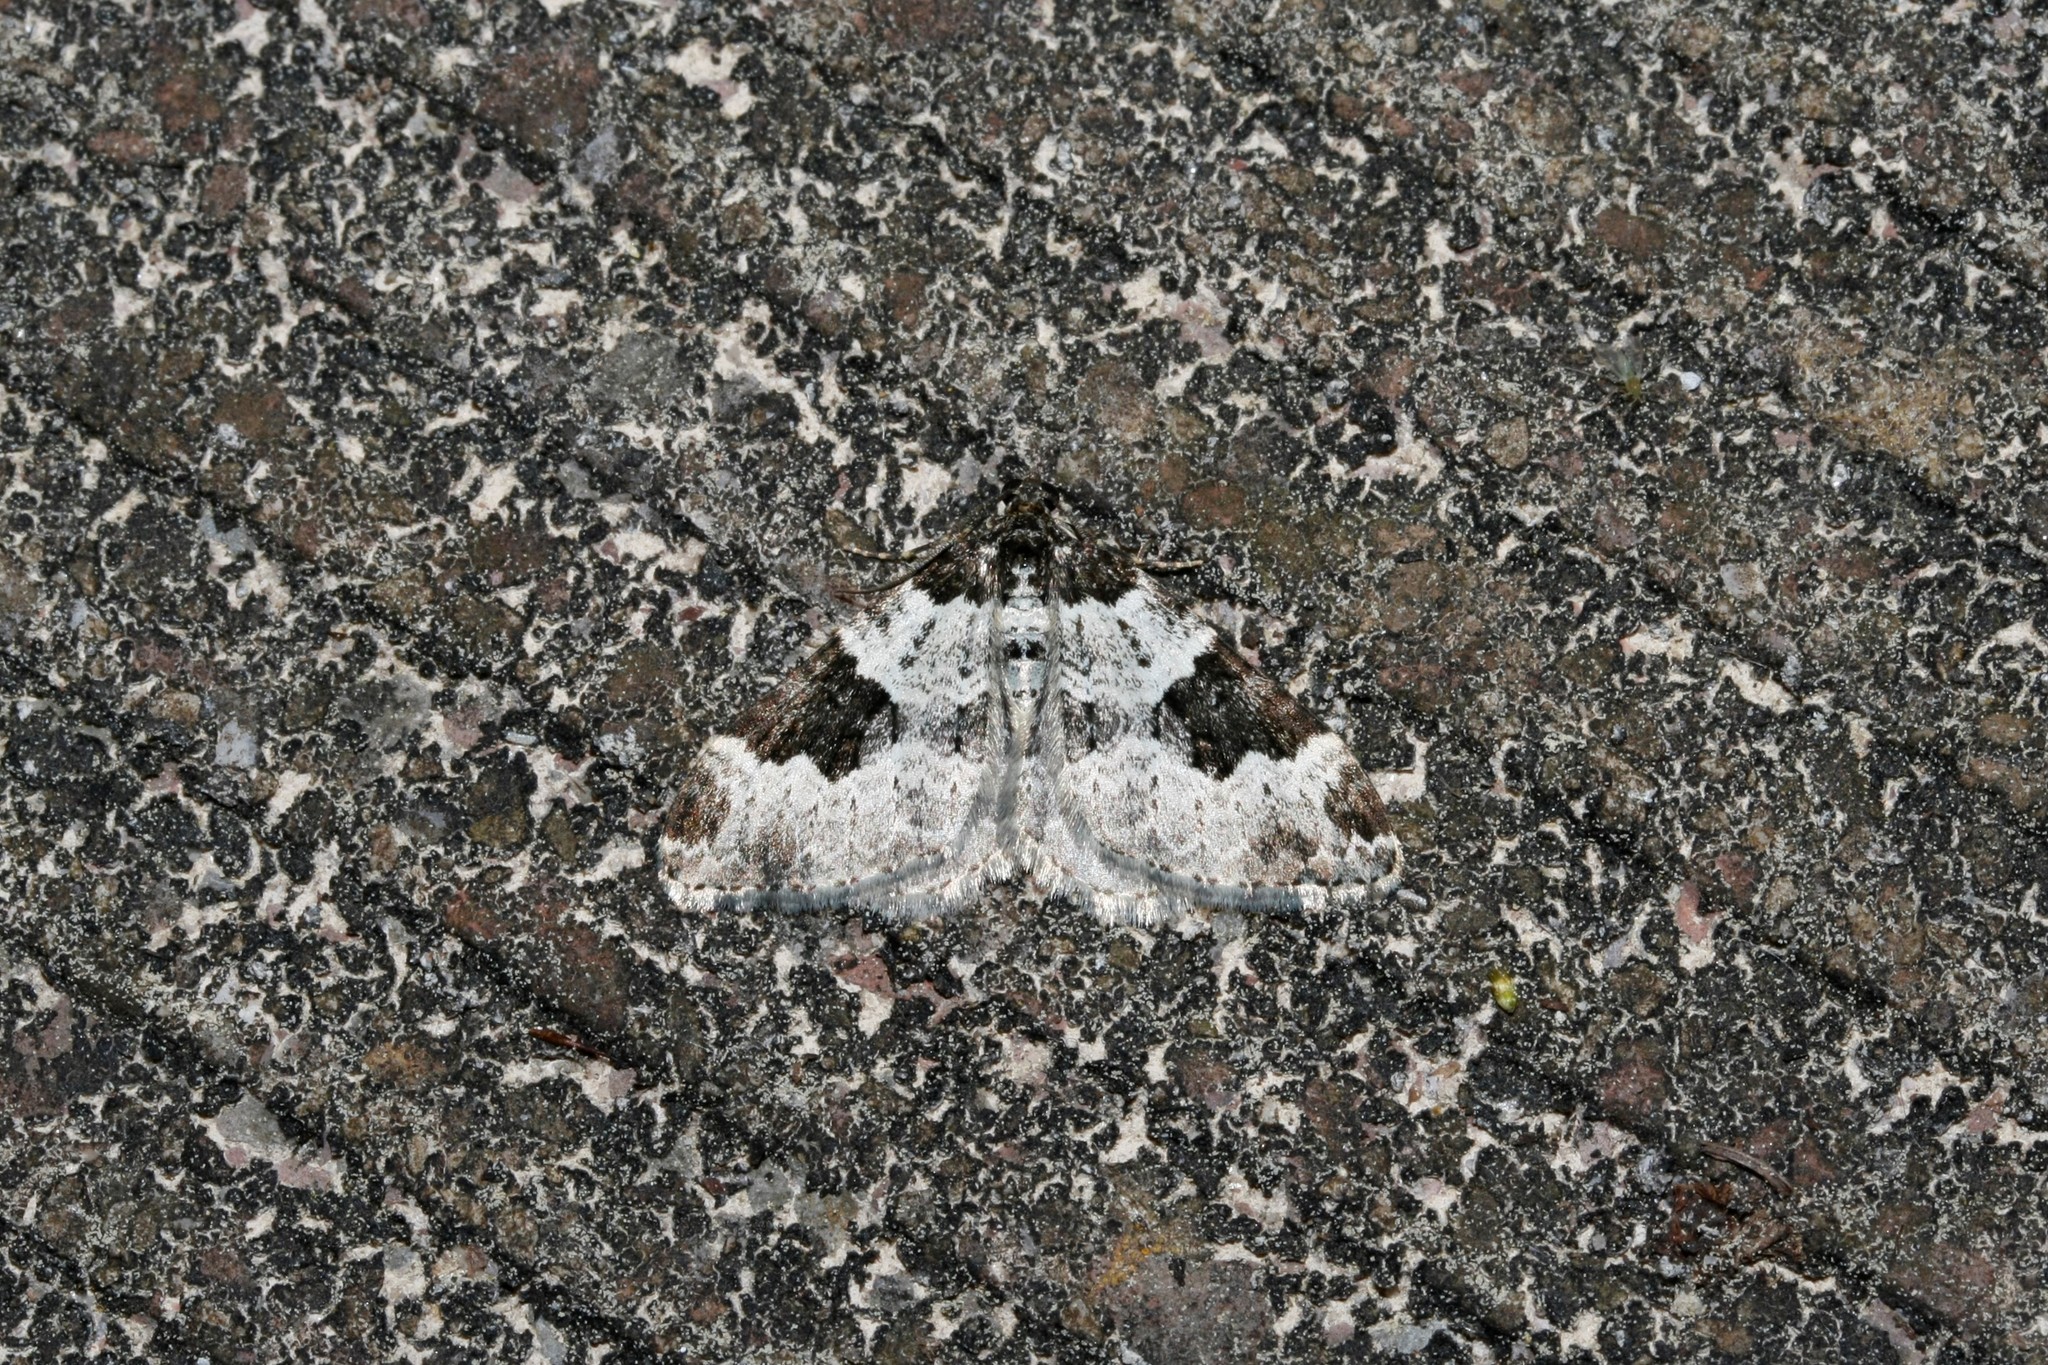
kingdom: Animalia
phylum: Arthropoda
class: Insecta
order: Lepidoptera
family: Geometridae
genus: Xanthorhoe
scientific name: Xanthorhoe fluctuata
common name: Garden carpet
